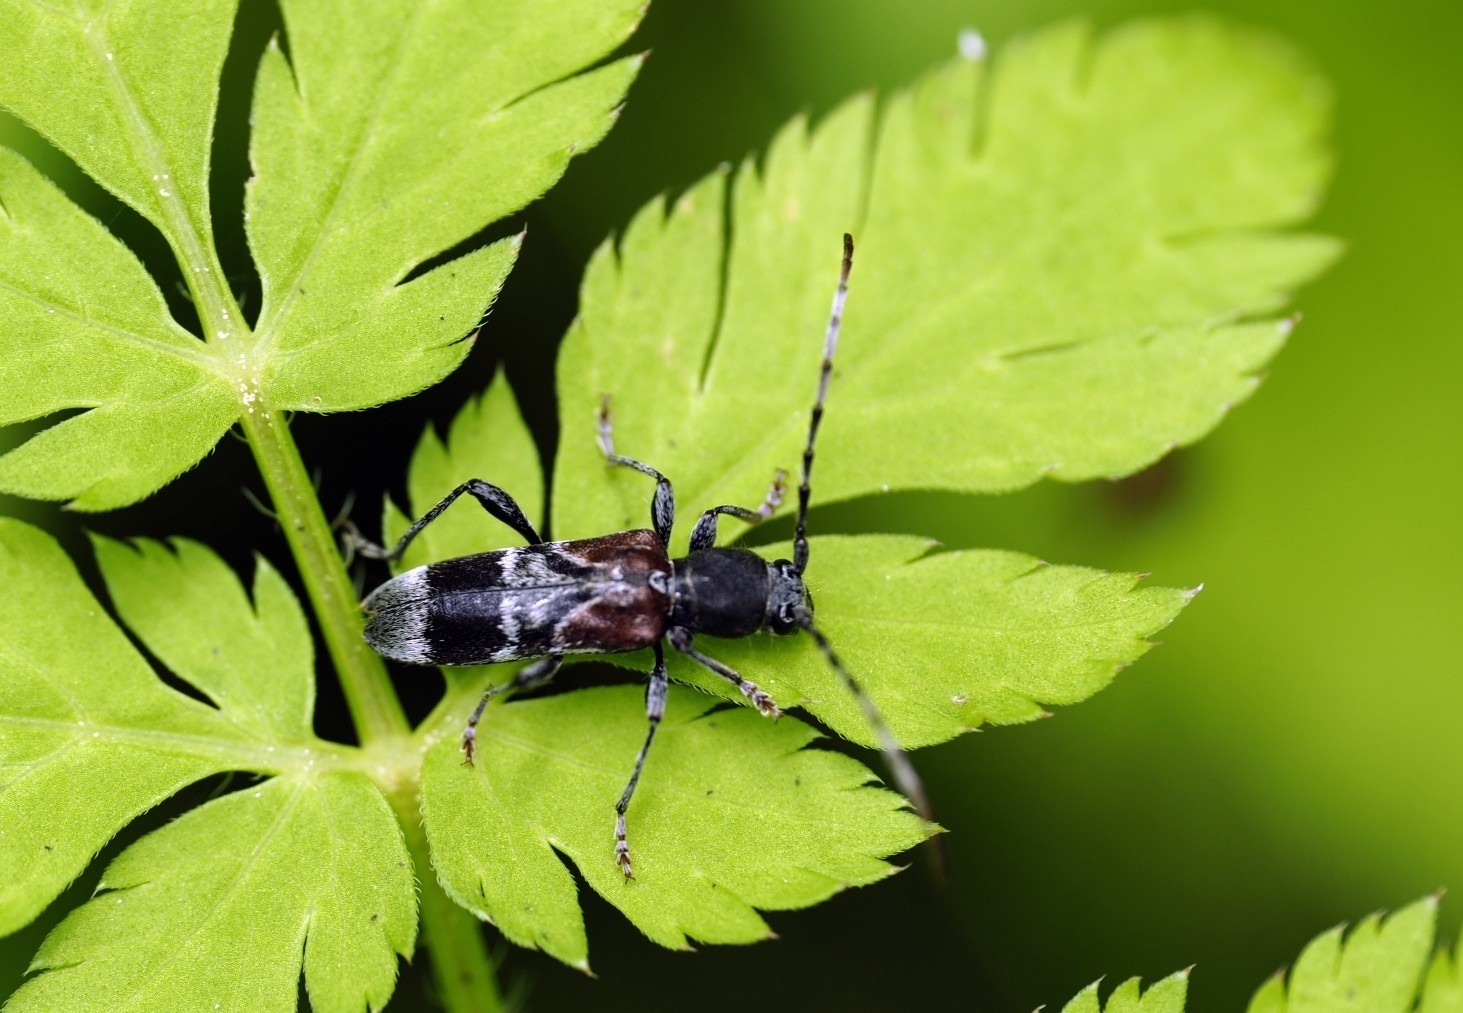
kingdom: Animalia
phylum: Arthropoda
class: Insecta
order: Coleoptera
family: Cerambycidae
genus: Anaglyptus
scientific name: Anaglyptus mysticus
